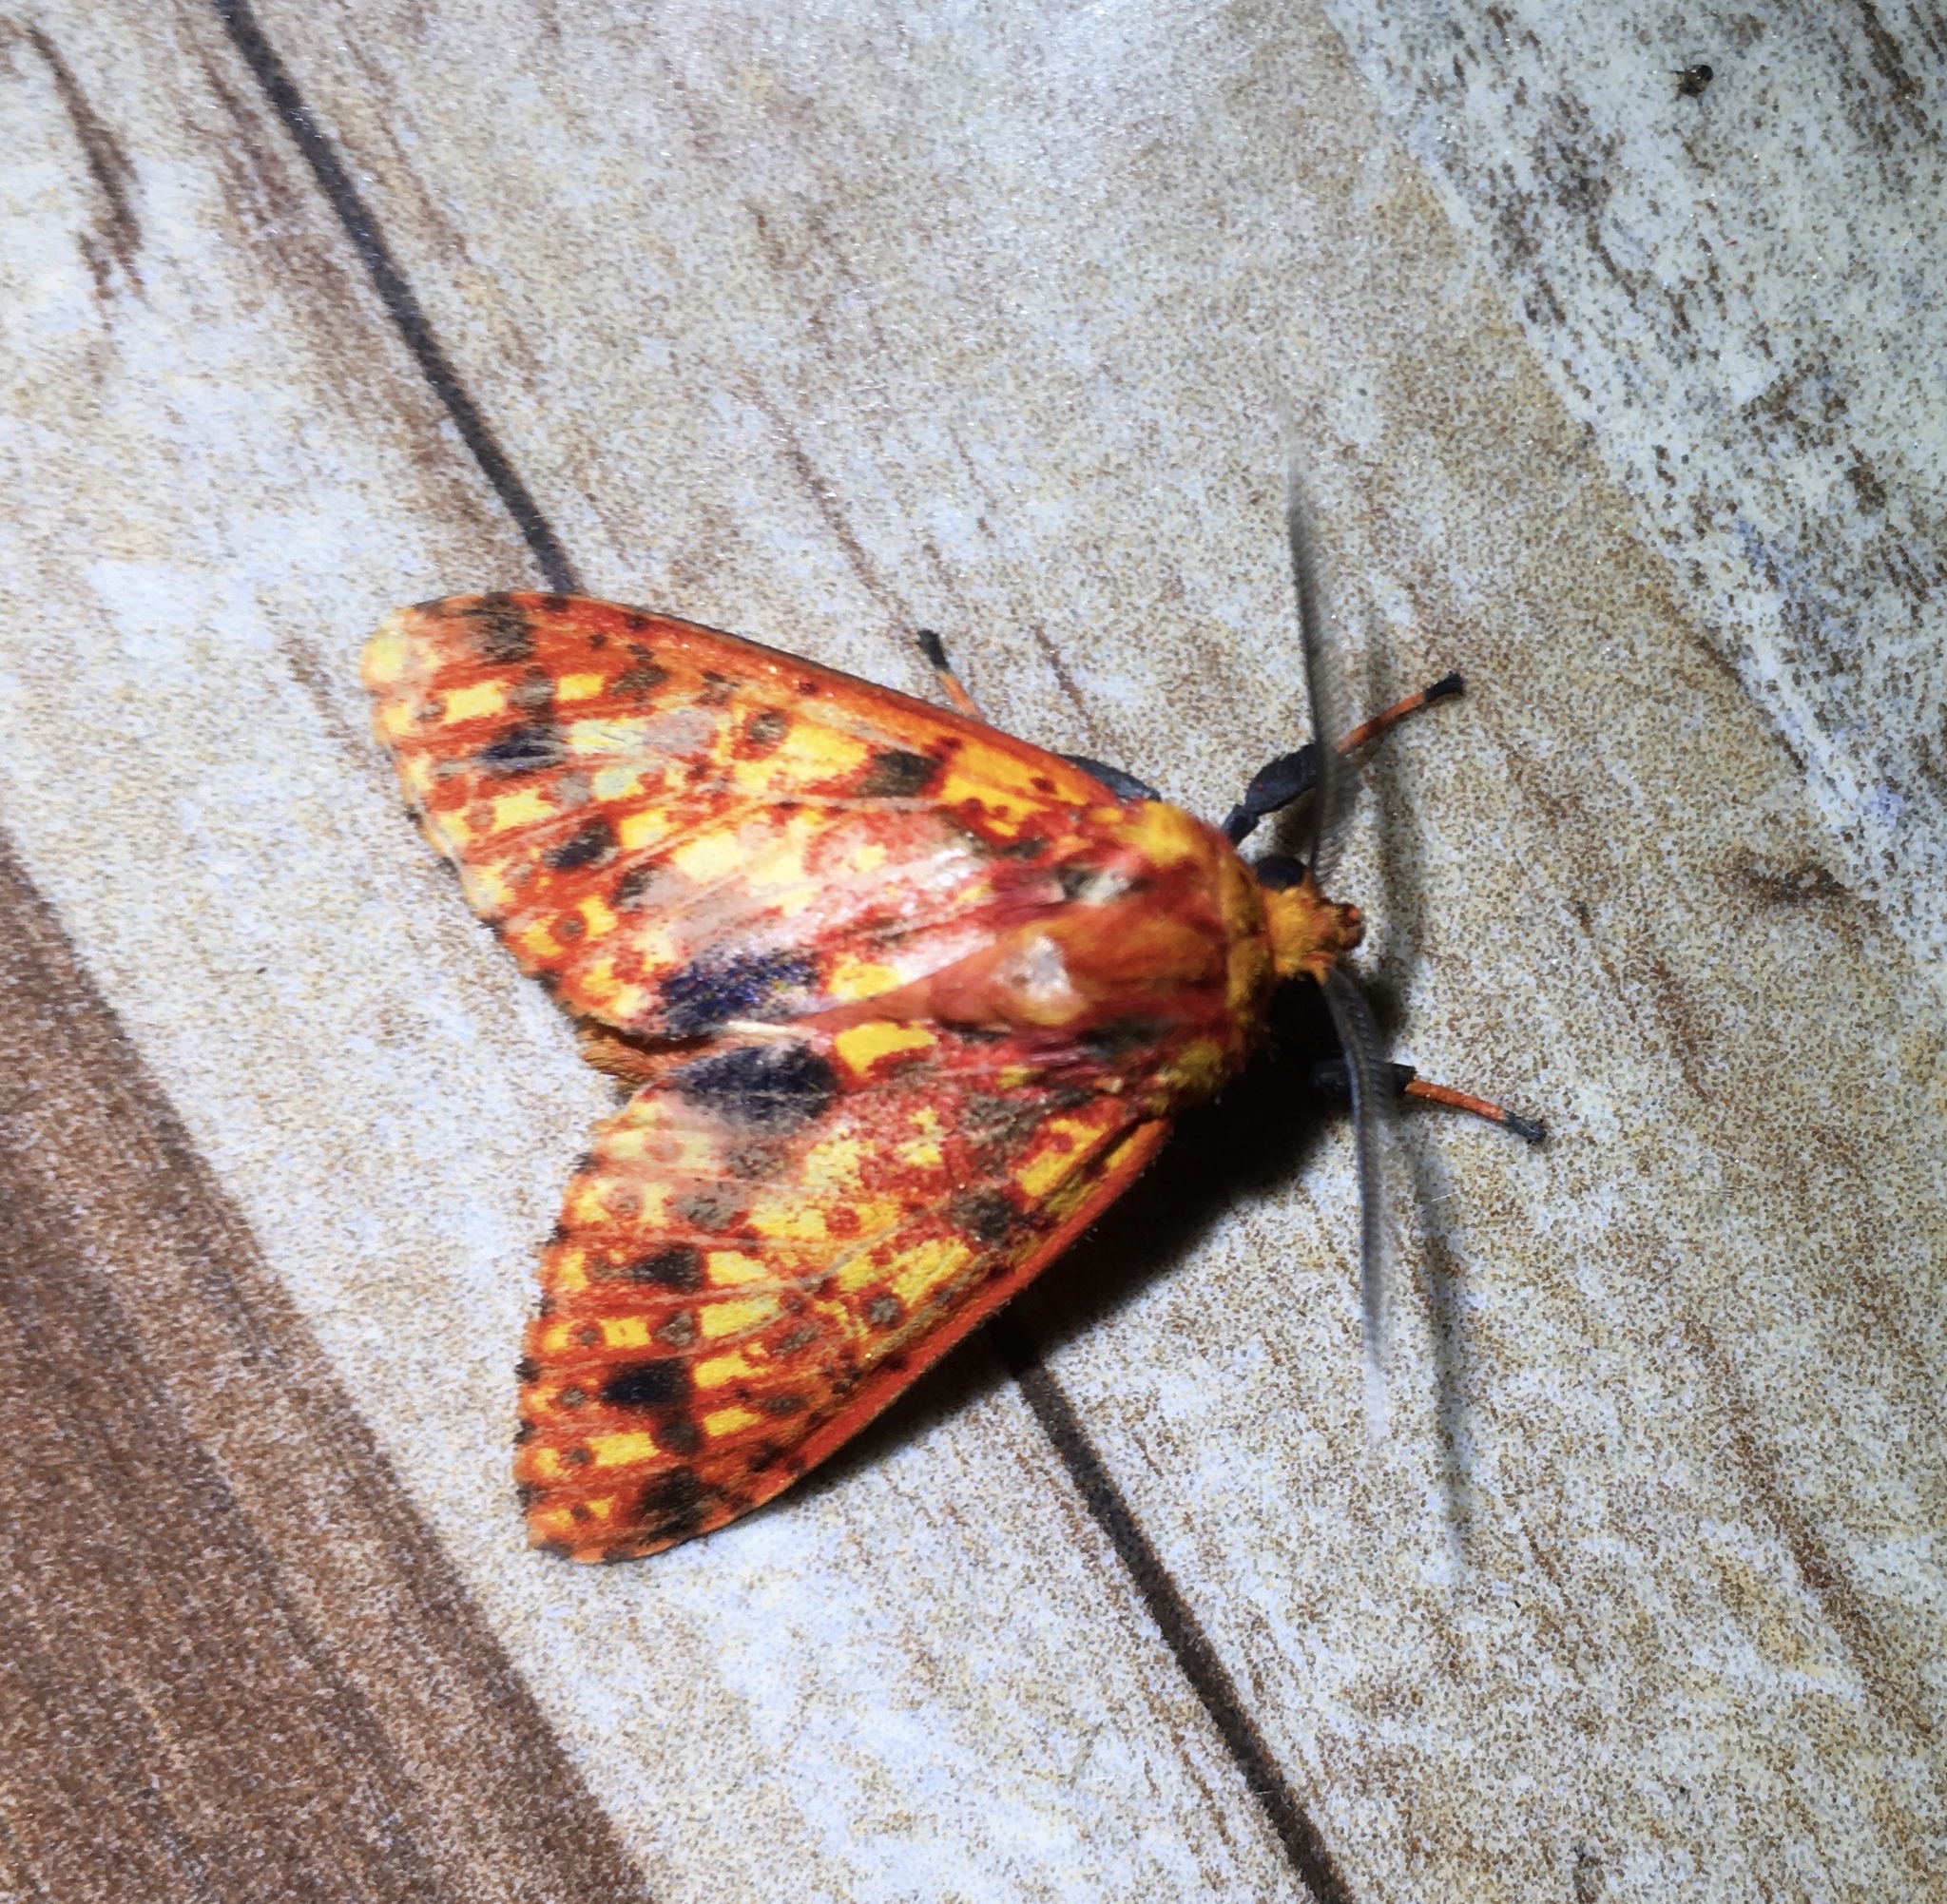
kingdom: Animalia
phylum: Arthropoda
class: Insecta
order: Lepidoptera
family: Erebidae
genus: Symphlebia
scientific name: Symphlebia perflua
